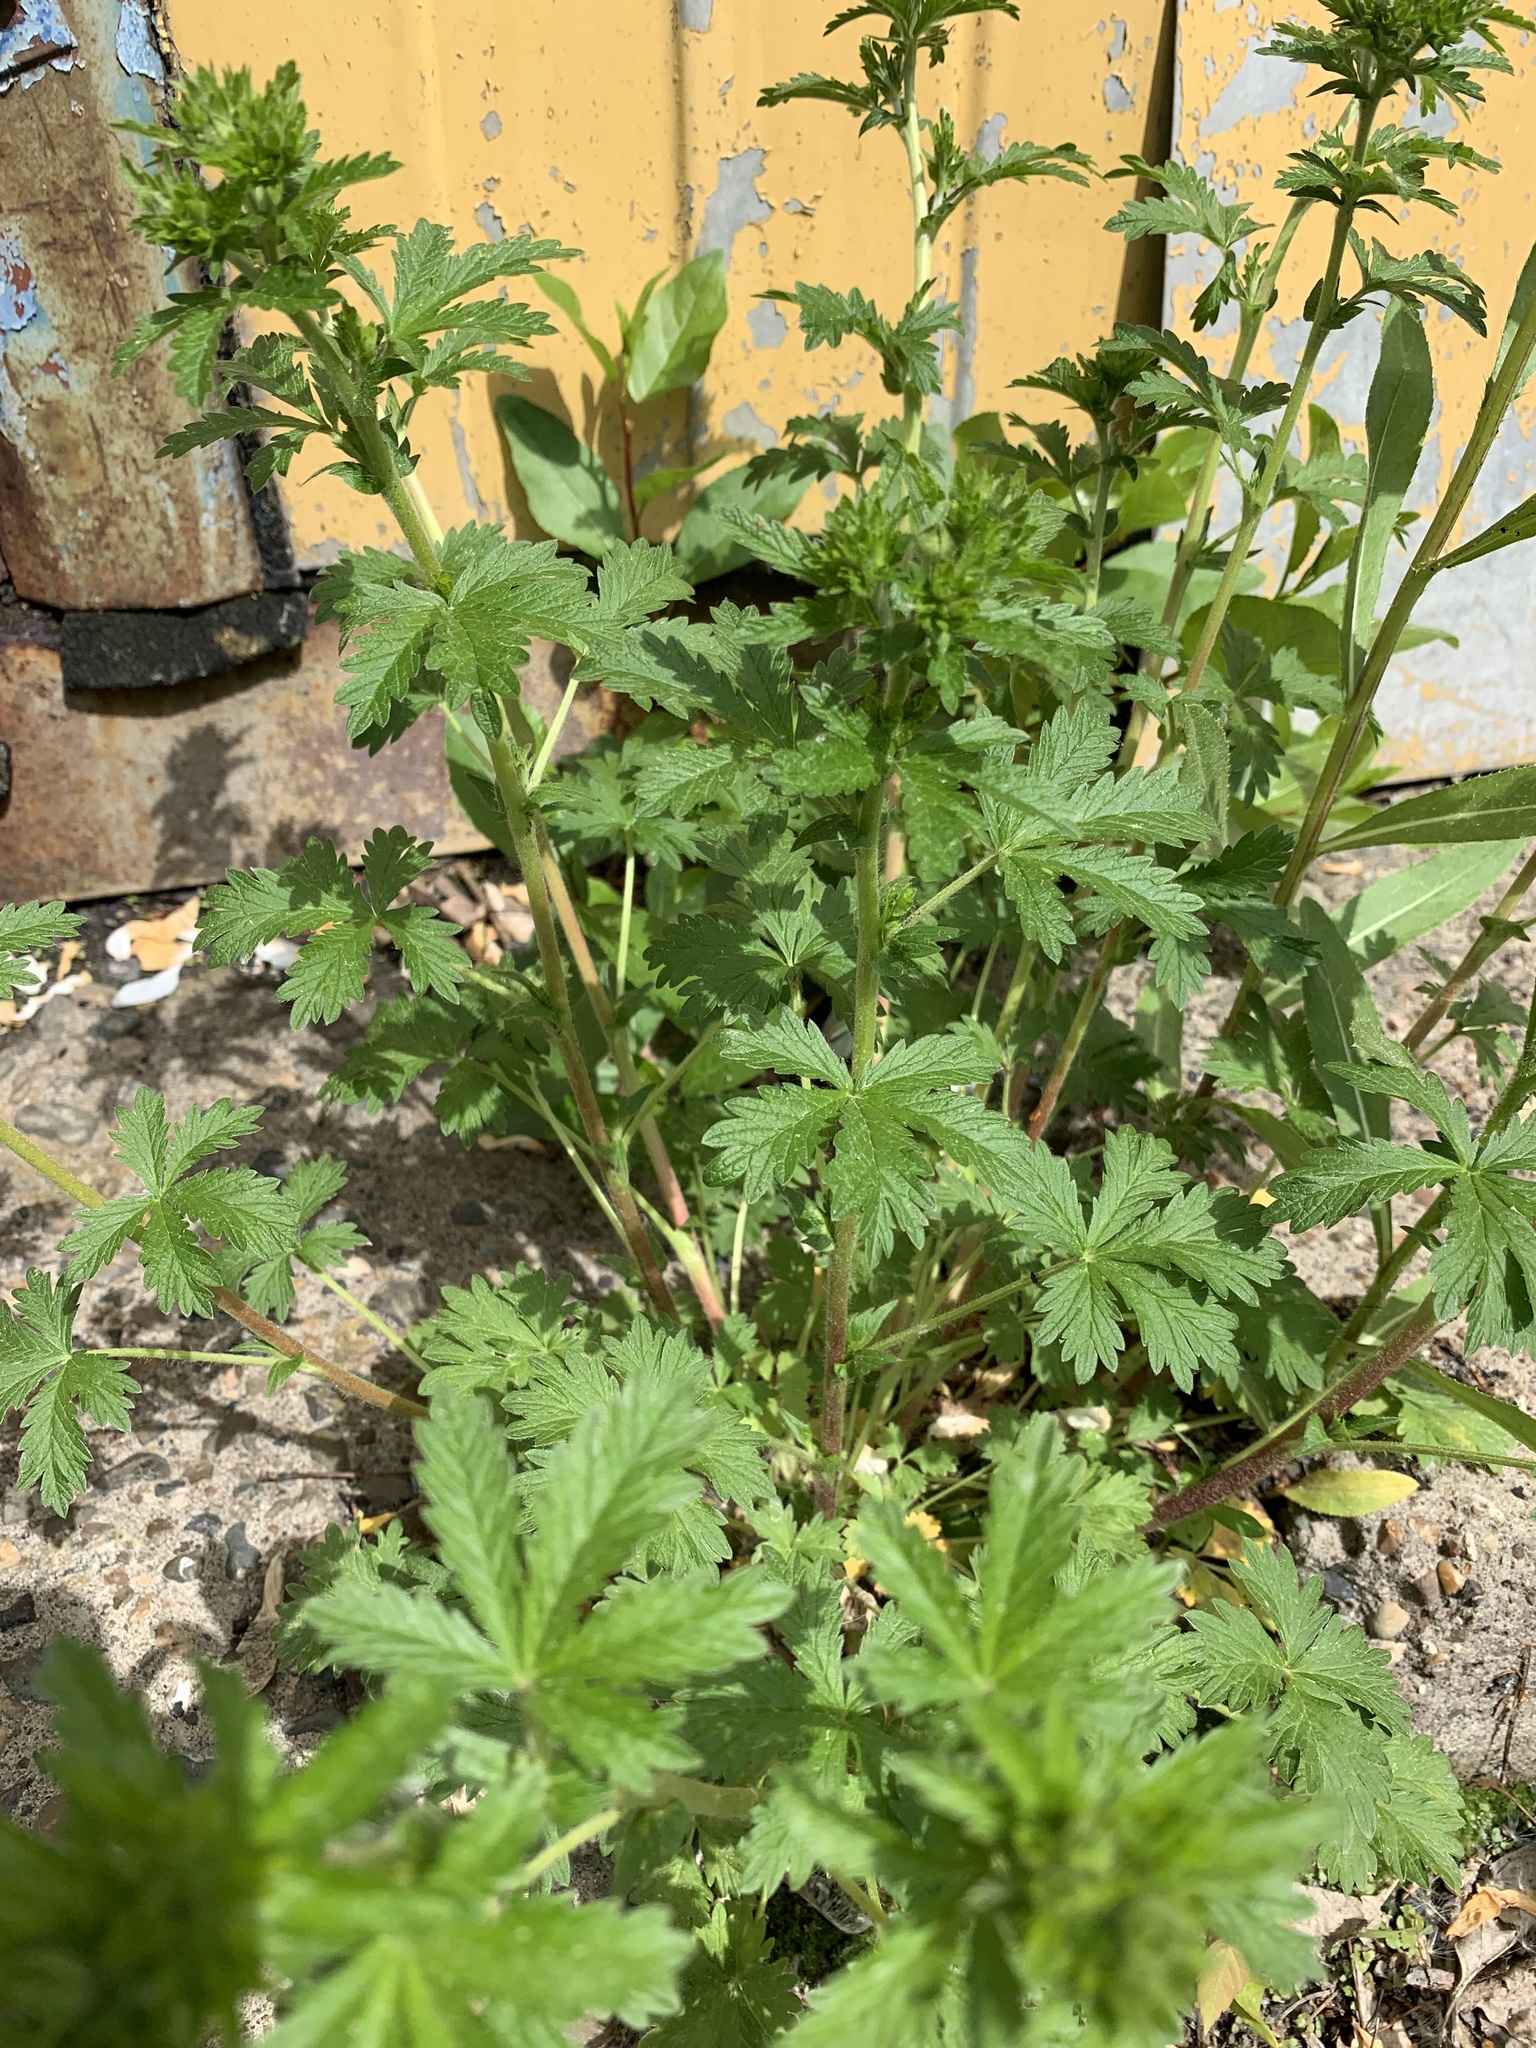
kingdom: Plantae
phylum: Tracheophyta
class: Magnoliopsida
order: Rosales
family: Rosaceae
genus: Potentilla
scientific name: Potentilla intermedia
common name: Downy cinquefoil
